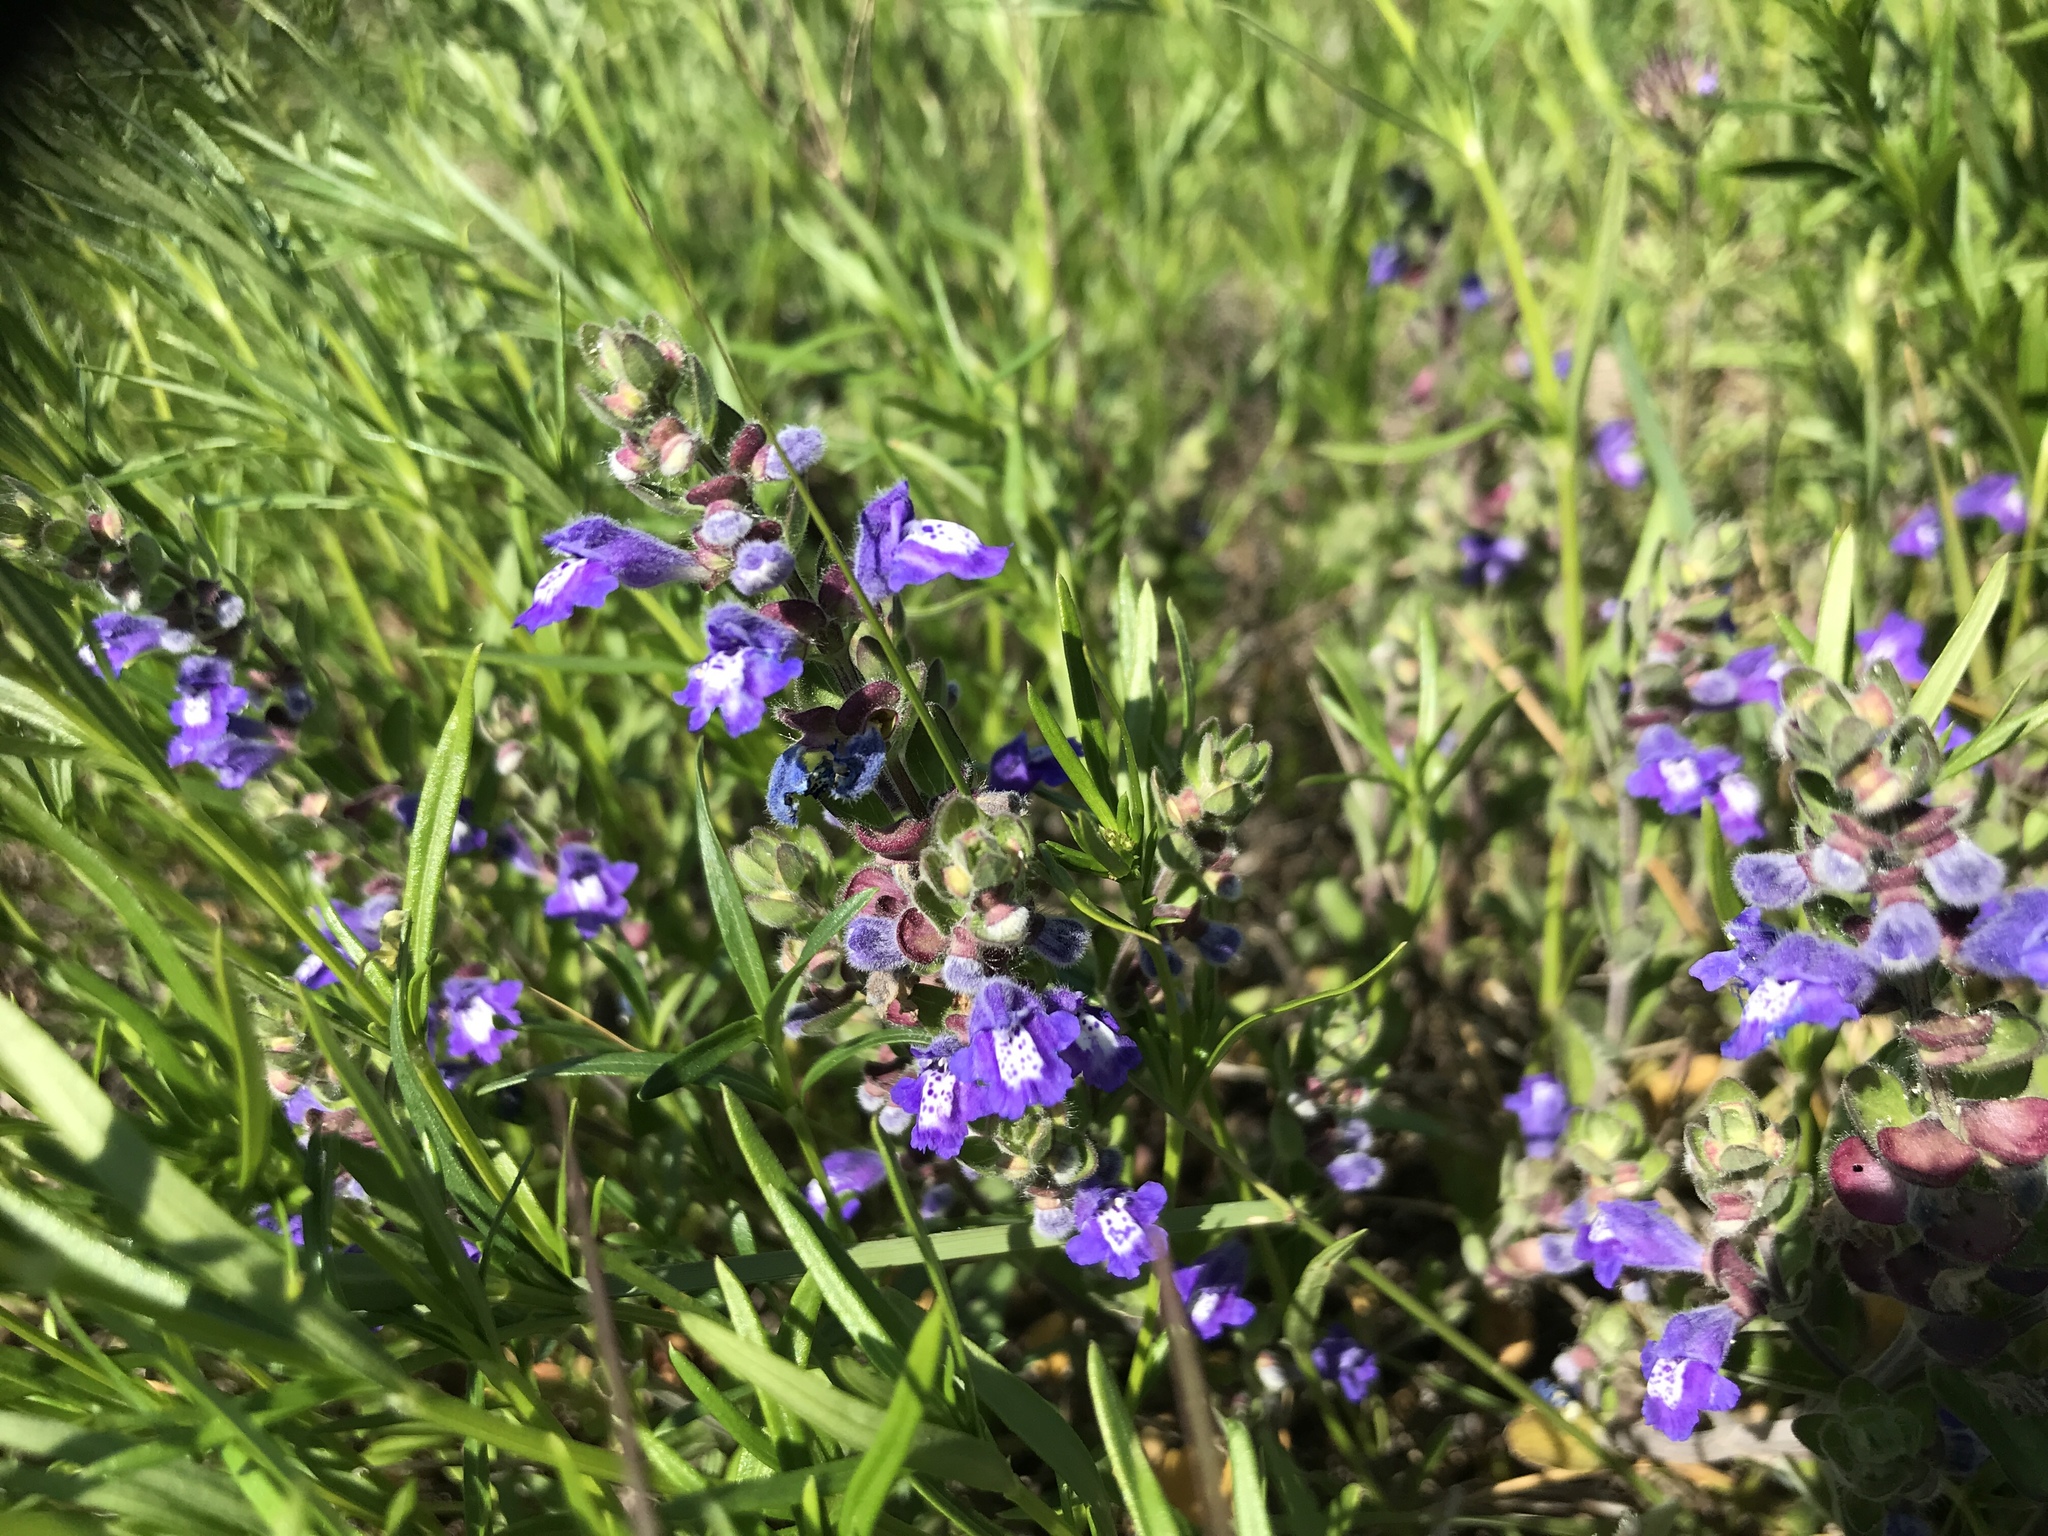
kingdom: Plantae
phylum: Tracheophyta
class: Magnoliopsida
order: Lamiales
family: Lamiaceae
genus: Scutellaria
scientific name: Scutellaria drummondii
